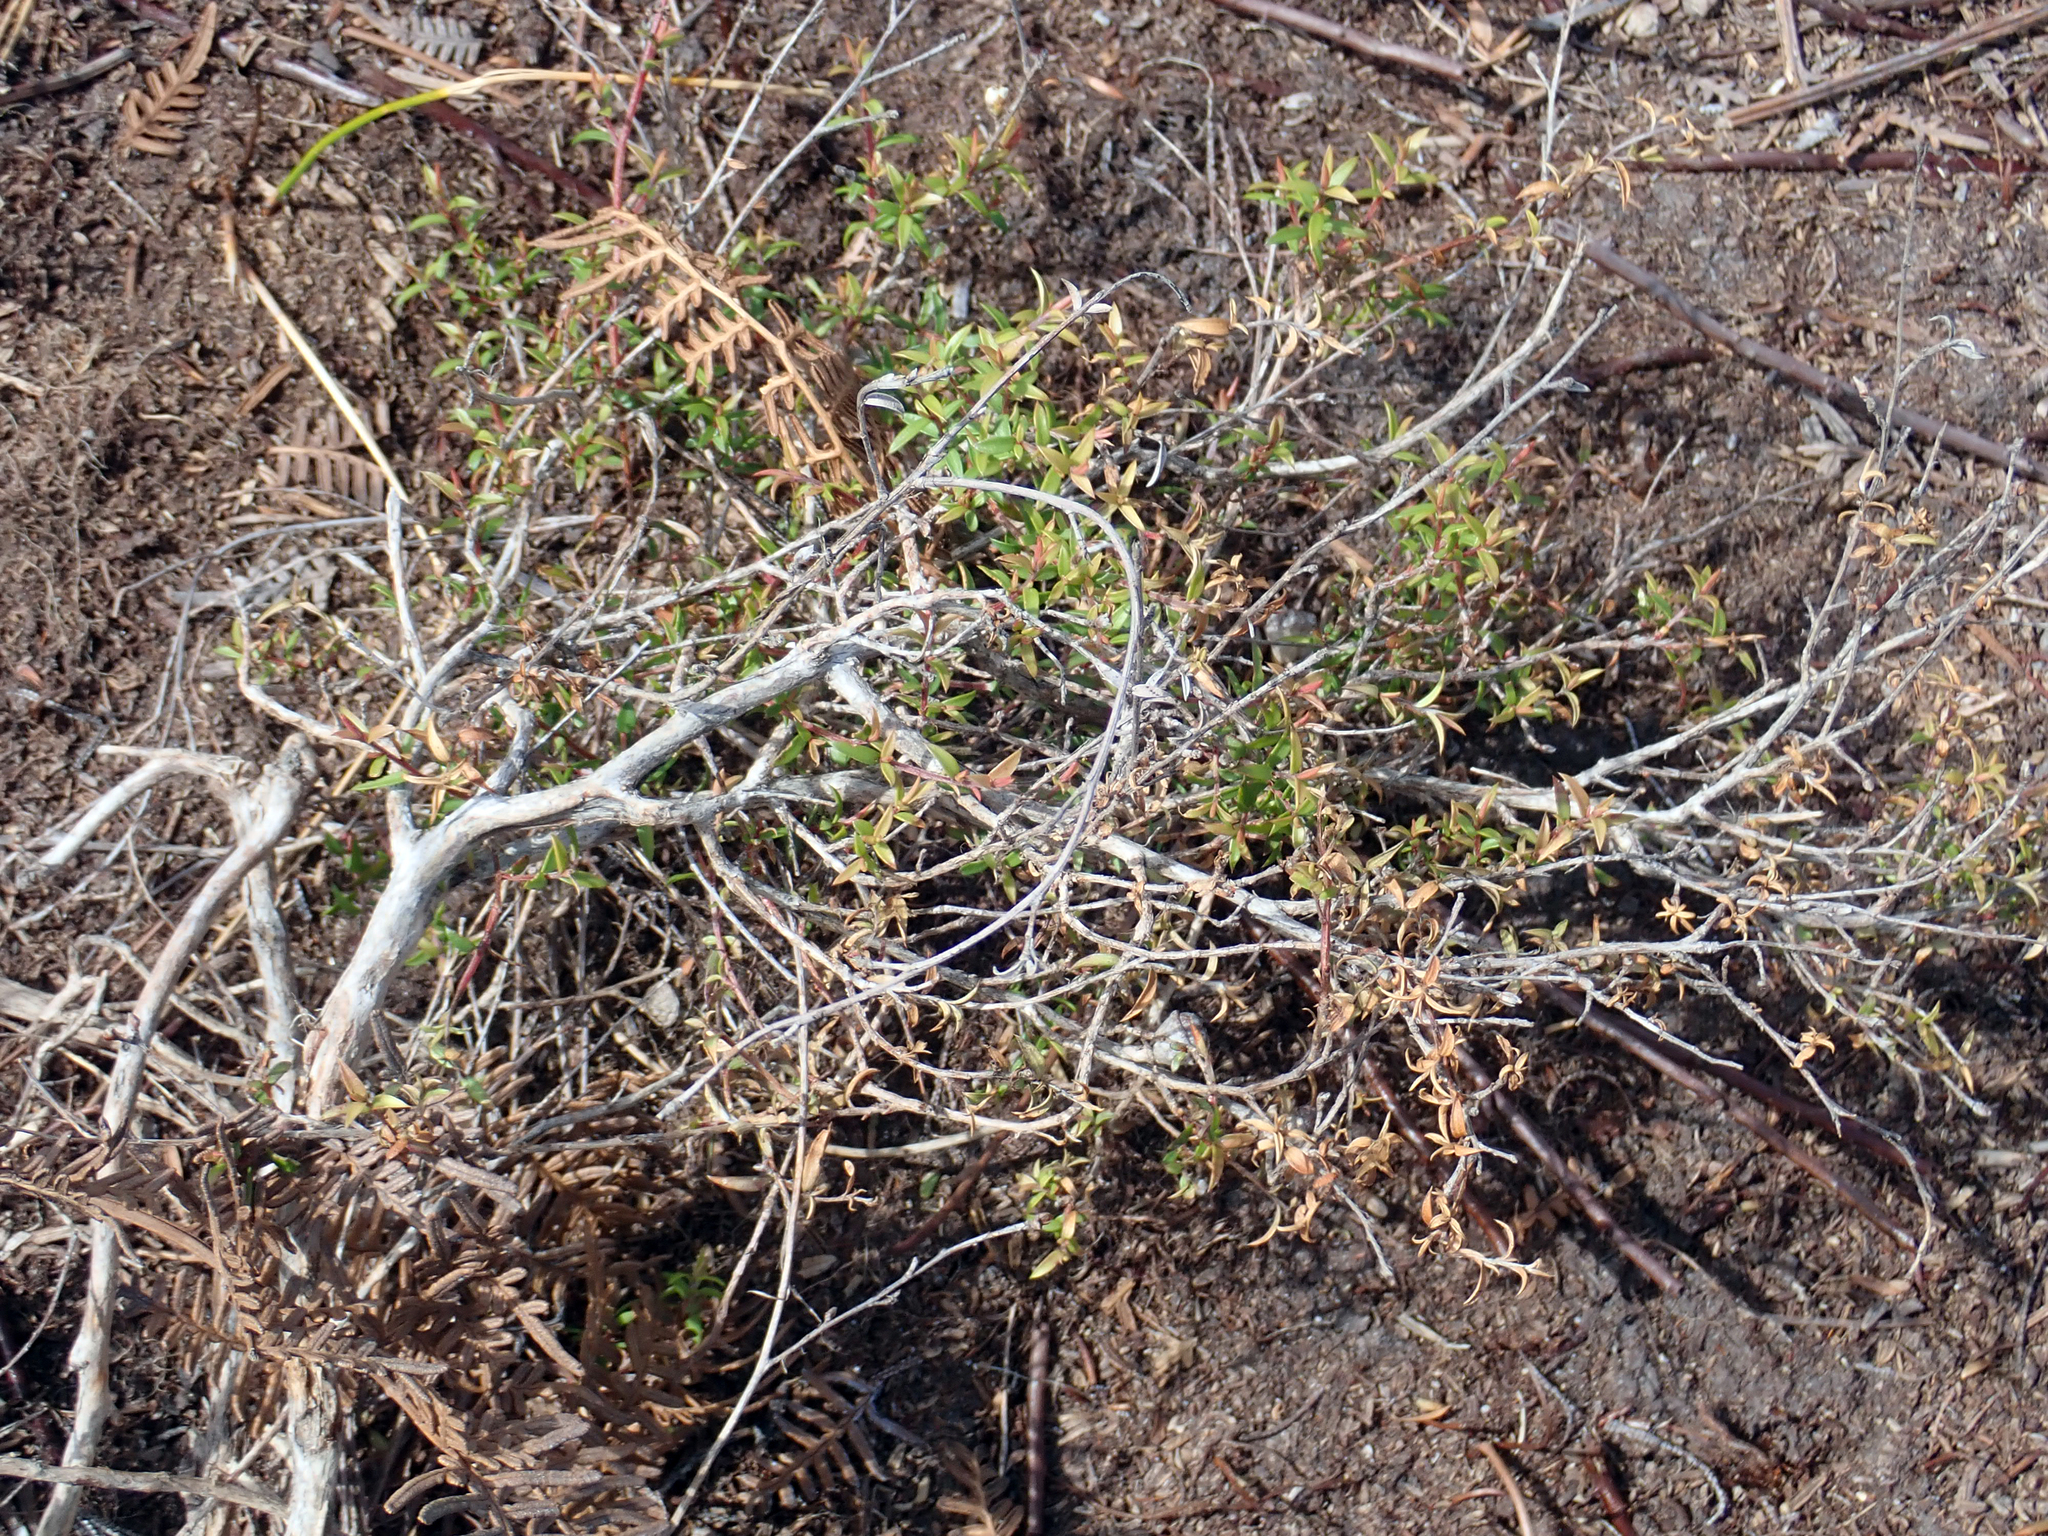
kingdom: Plantae
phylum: Tracheophyta
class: Magnoliopsida
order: Myrtales
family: Myrtaceae
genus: Leptospermum
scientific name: Leptospermum scoparium
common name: Broom tea-tree
